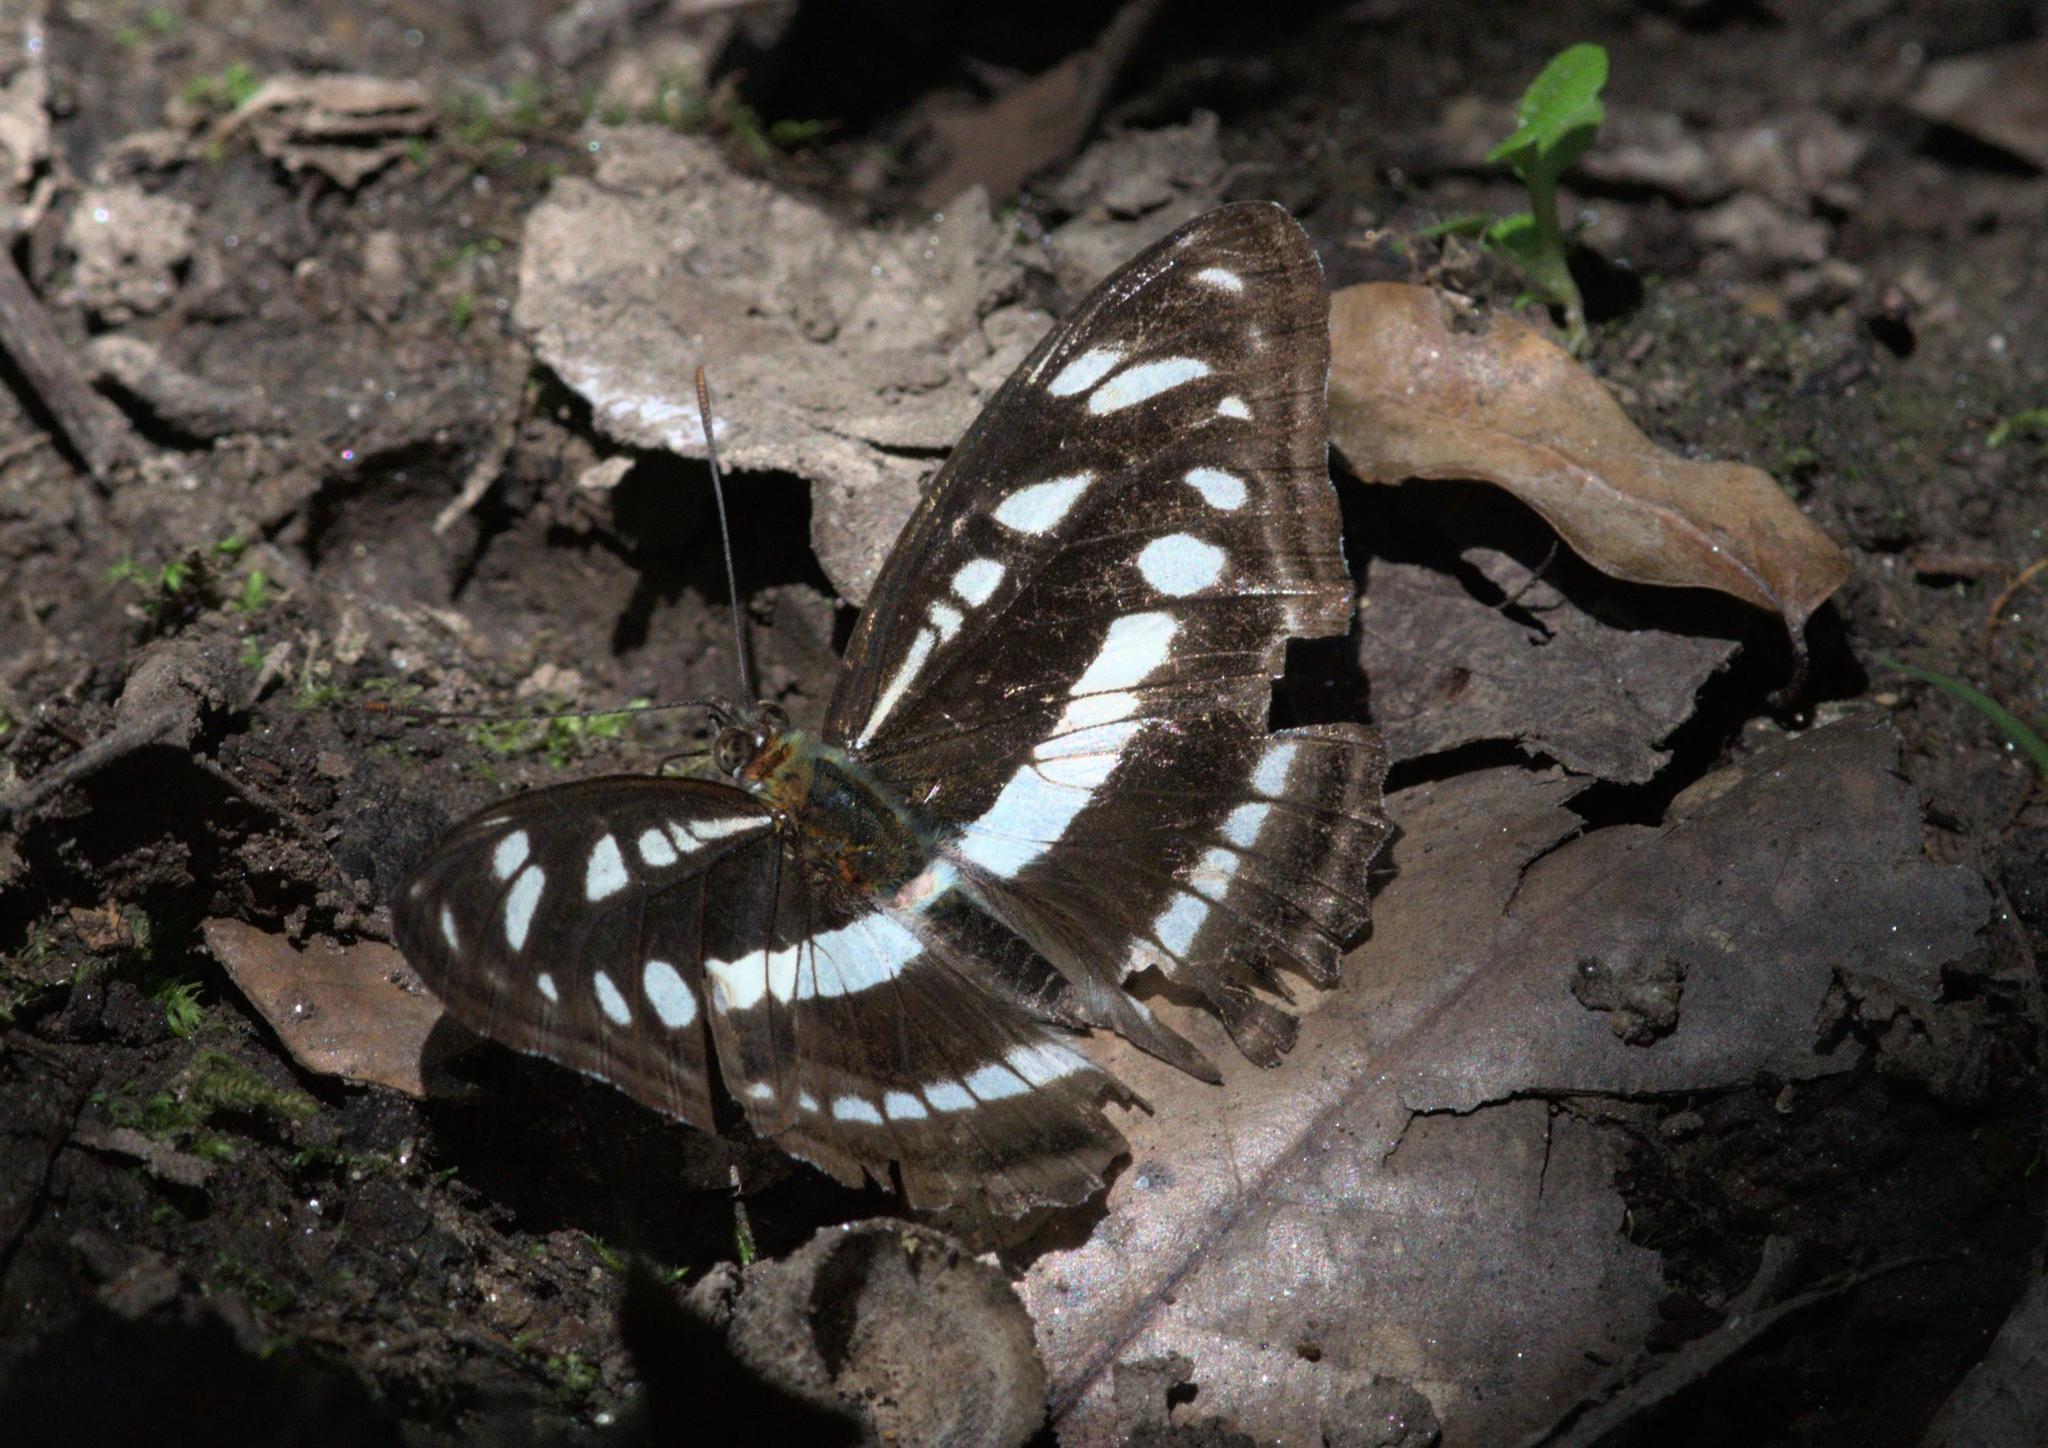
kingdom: Animalia
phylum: Arthropoda
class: Insecta
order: Lepidoptera
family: Nymphalidae
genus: Parathyma
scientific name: Parathyma opalina
